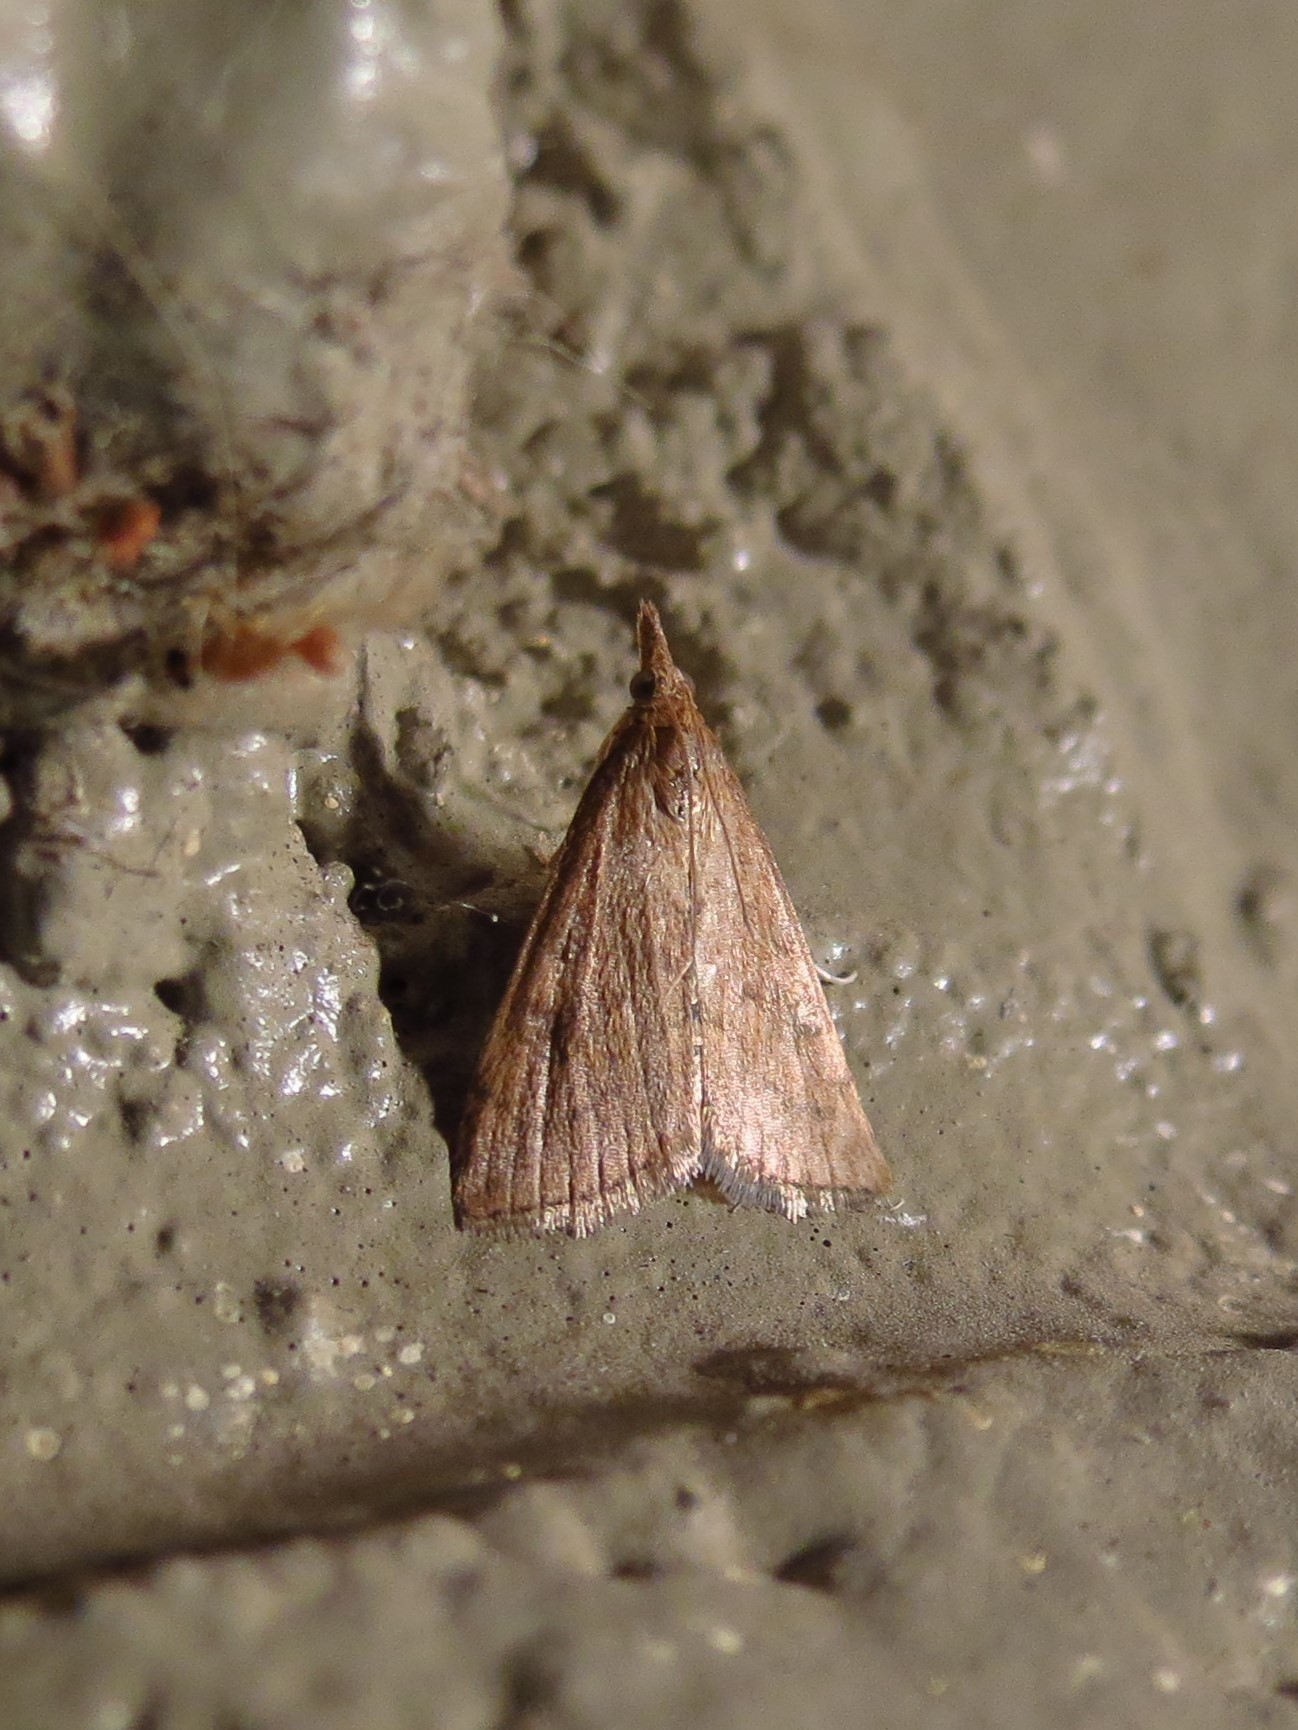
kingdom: Animalia
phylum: Arthropoda
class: Insecta
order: Lepidoptera
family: Crambidae
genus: Udea
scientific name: Udea rubigalis
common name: Celery leaftier moth
